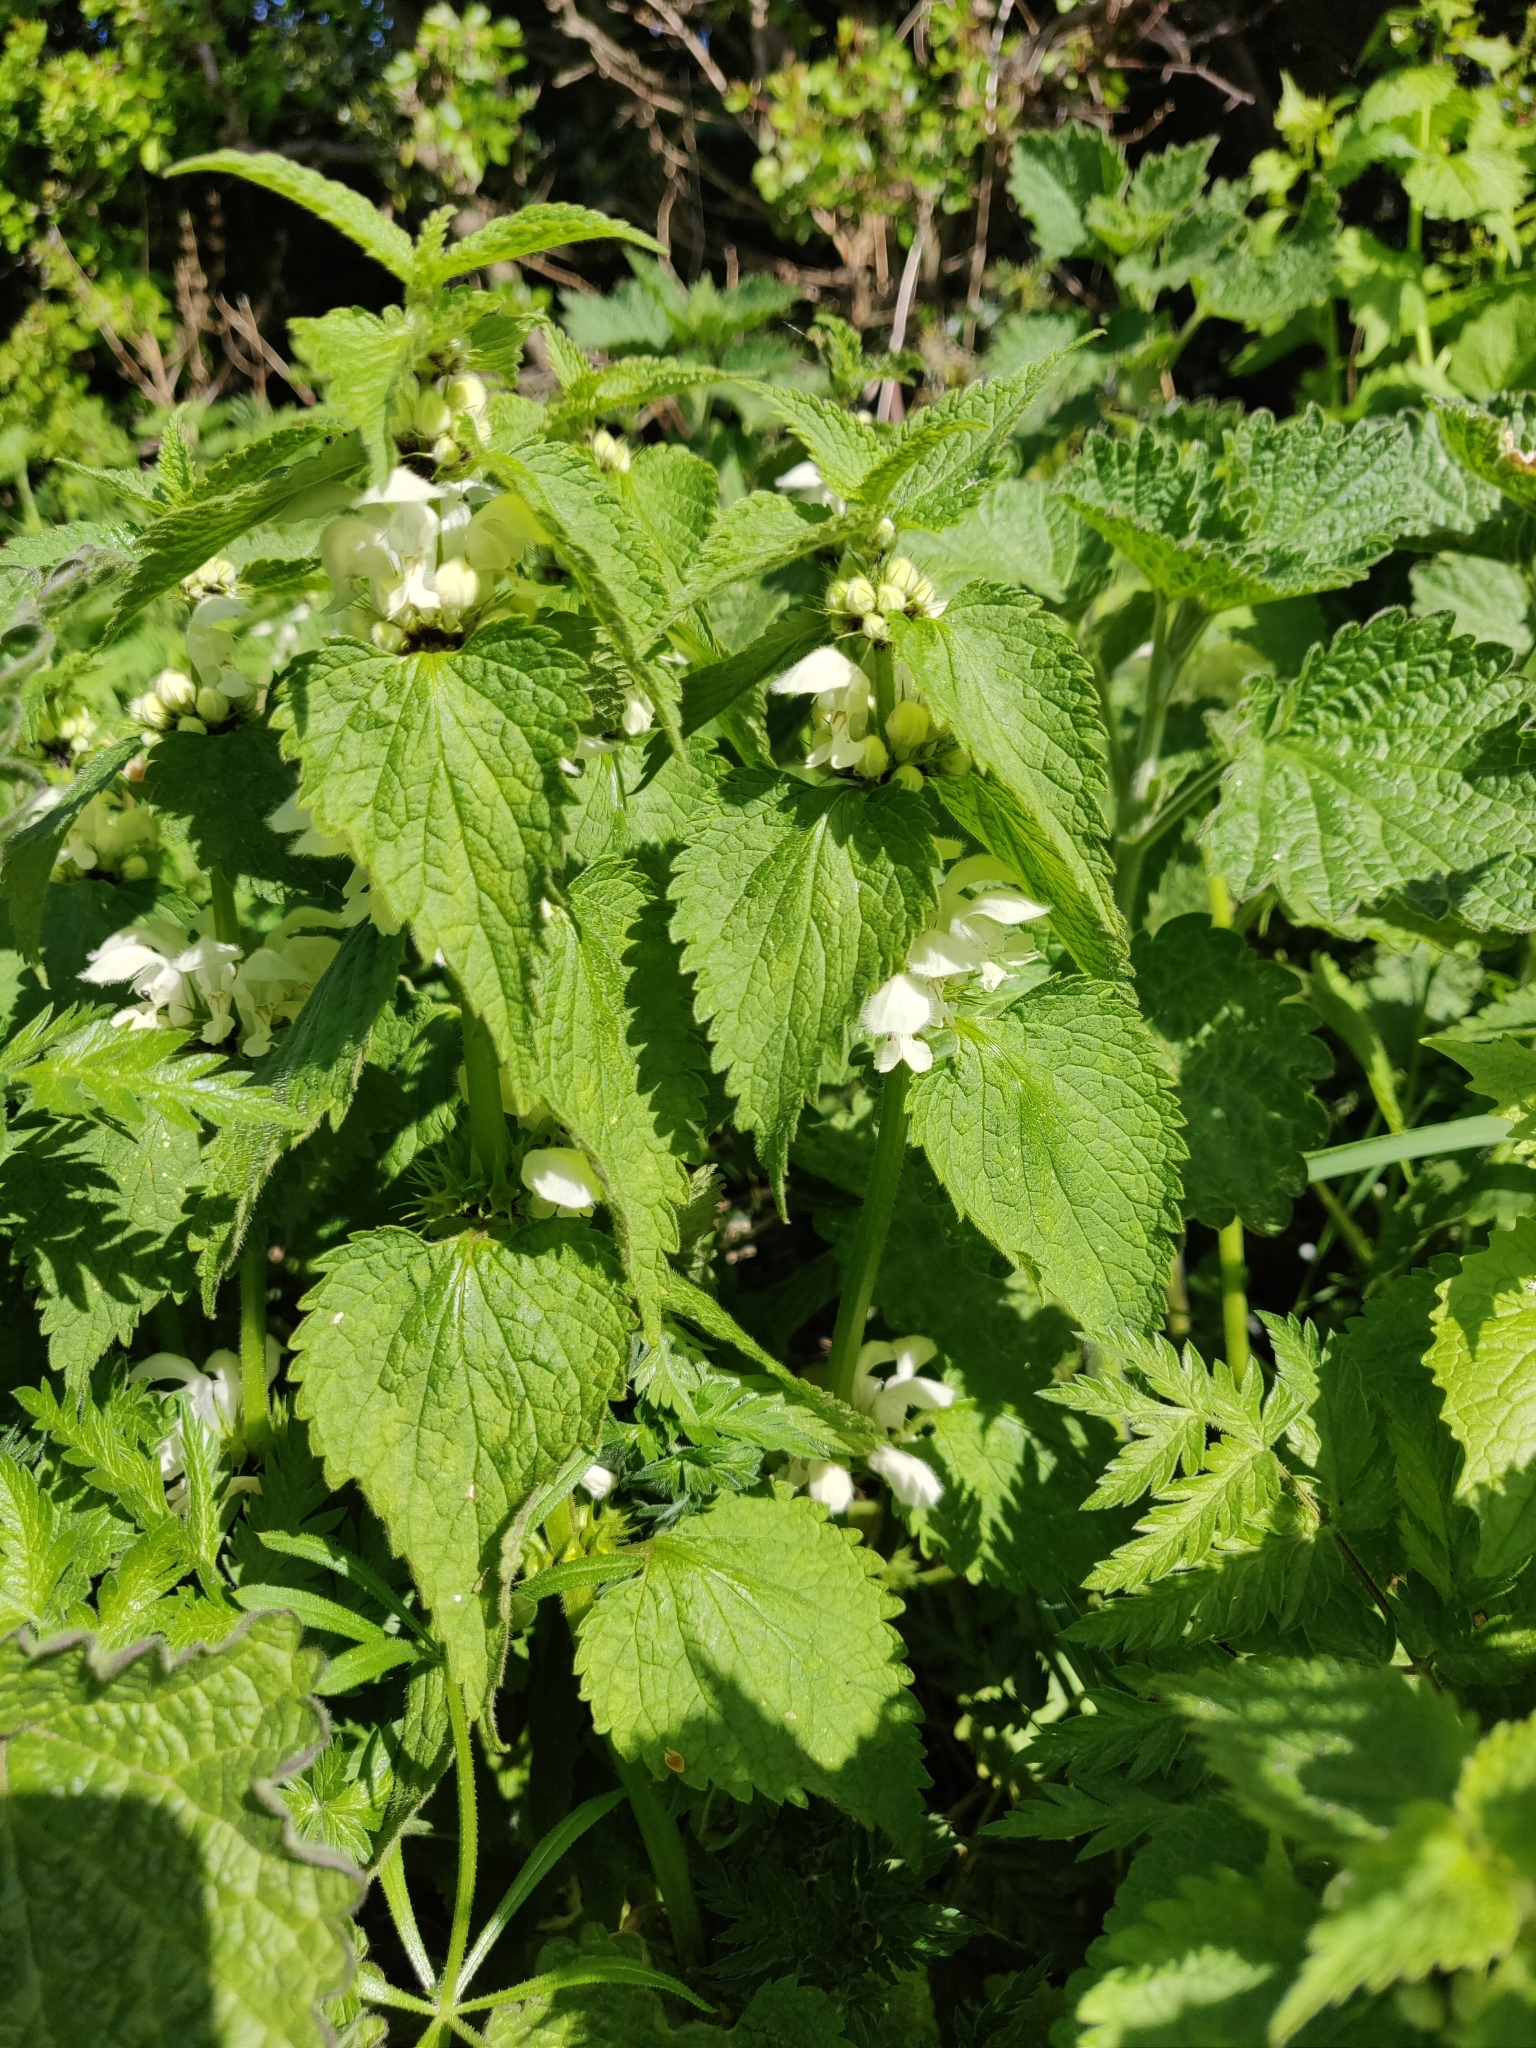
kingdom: Plantae
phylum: Tracheophyta
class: Magnoliopsida
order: Lamiales
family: Lamiaceae
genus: Lamium
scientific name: Lamium album
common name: White dead-nettle
